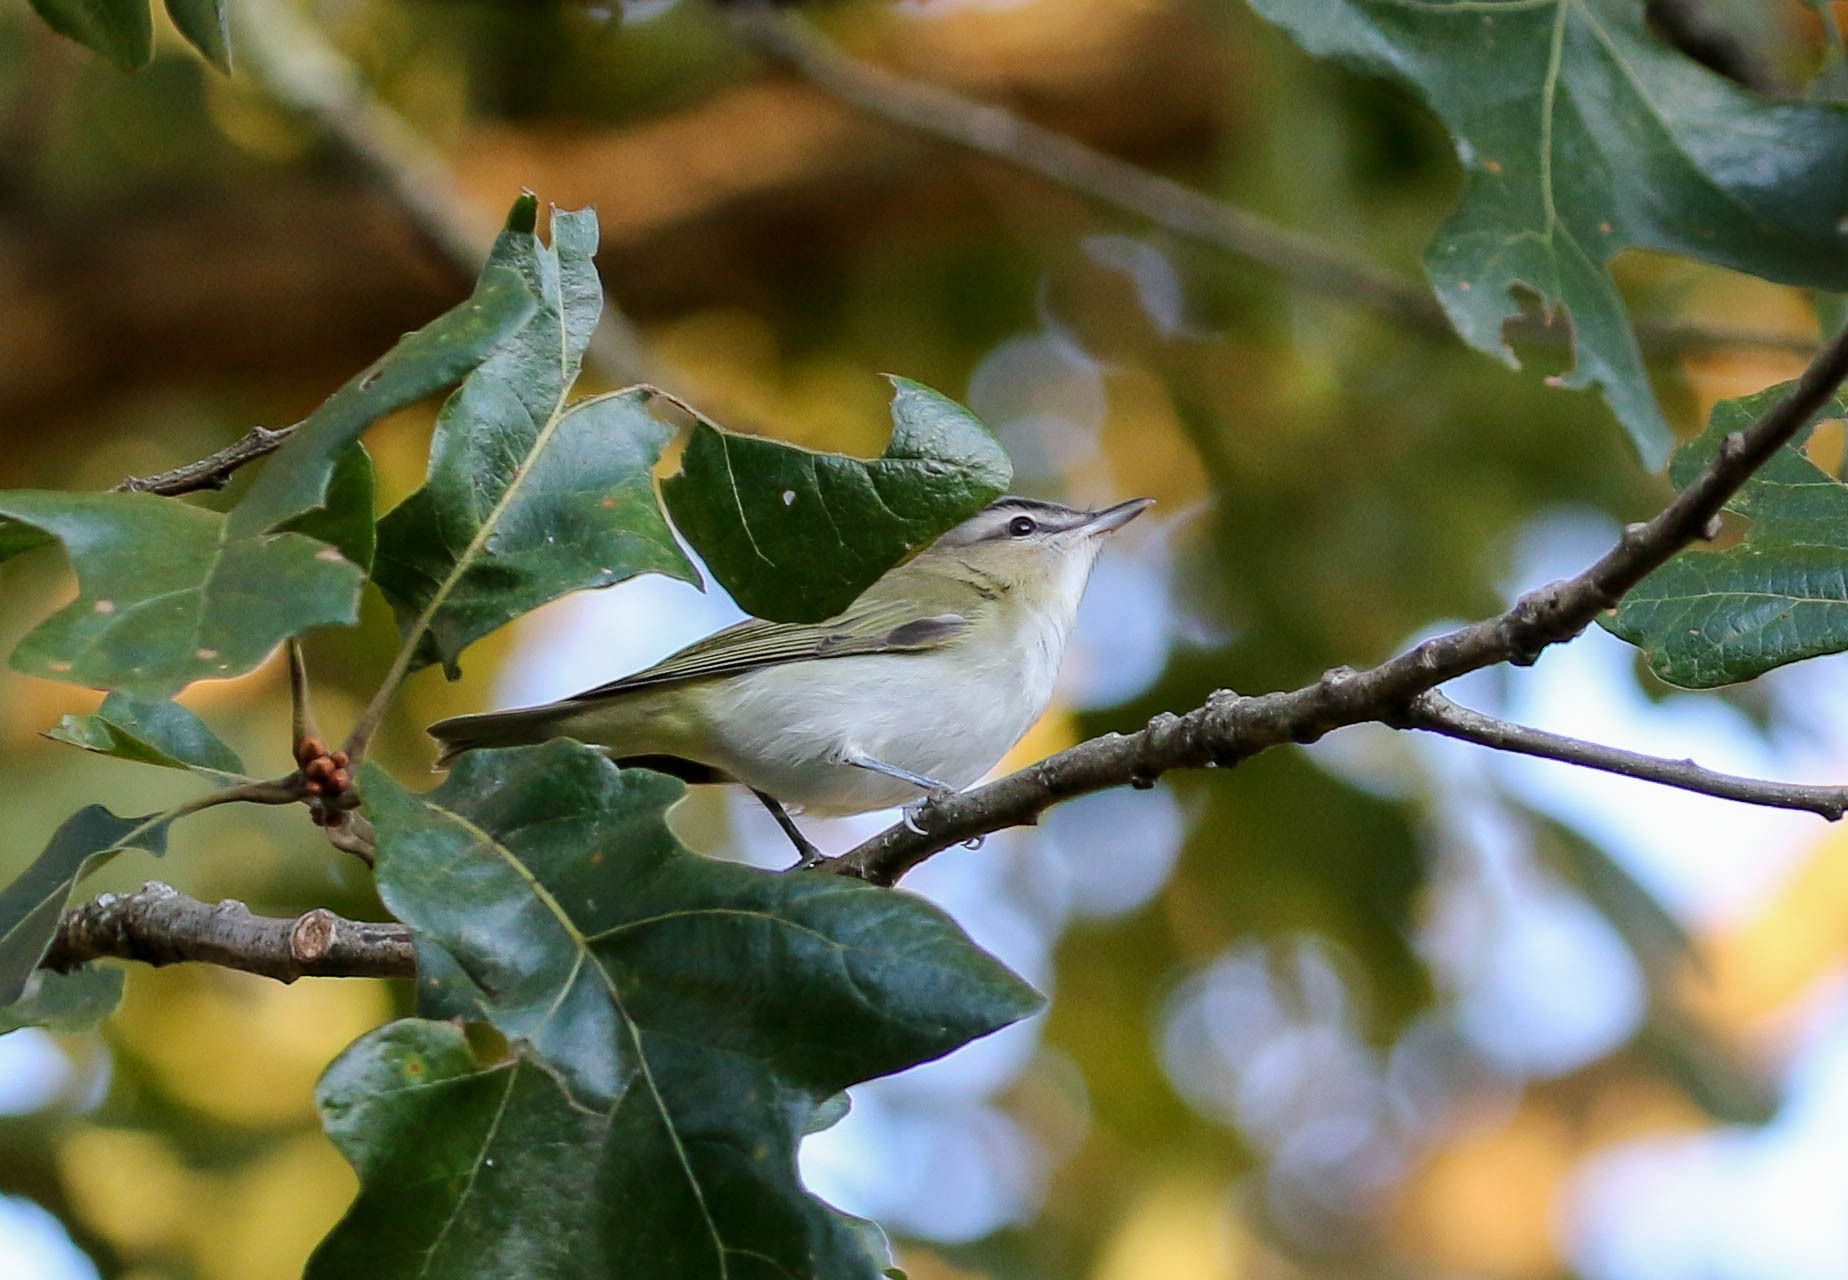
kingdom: Animalia
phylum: Chordata
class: Aves
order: Passeriformes
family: Vireonidae
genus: Vireo
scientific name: Vireo olivaceus
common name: Red-eyed vireo
